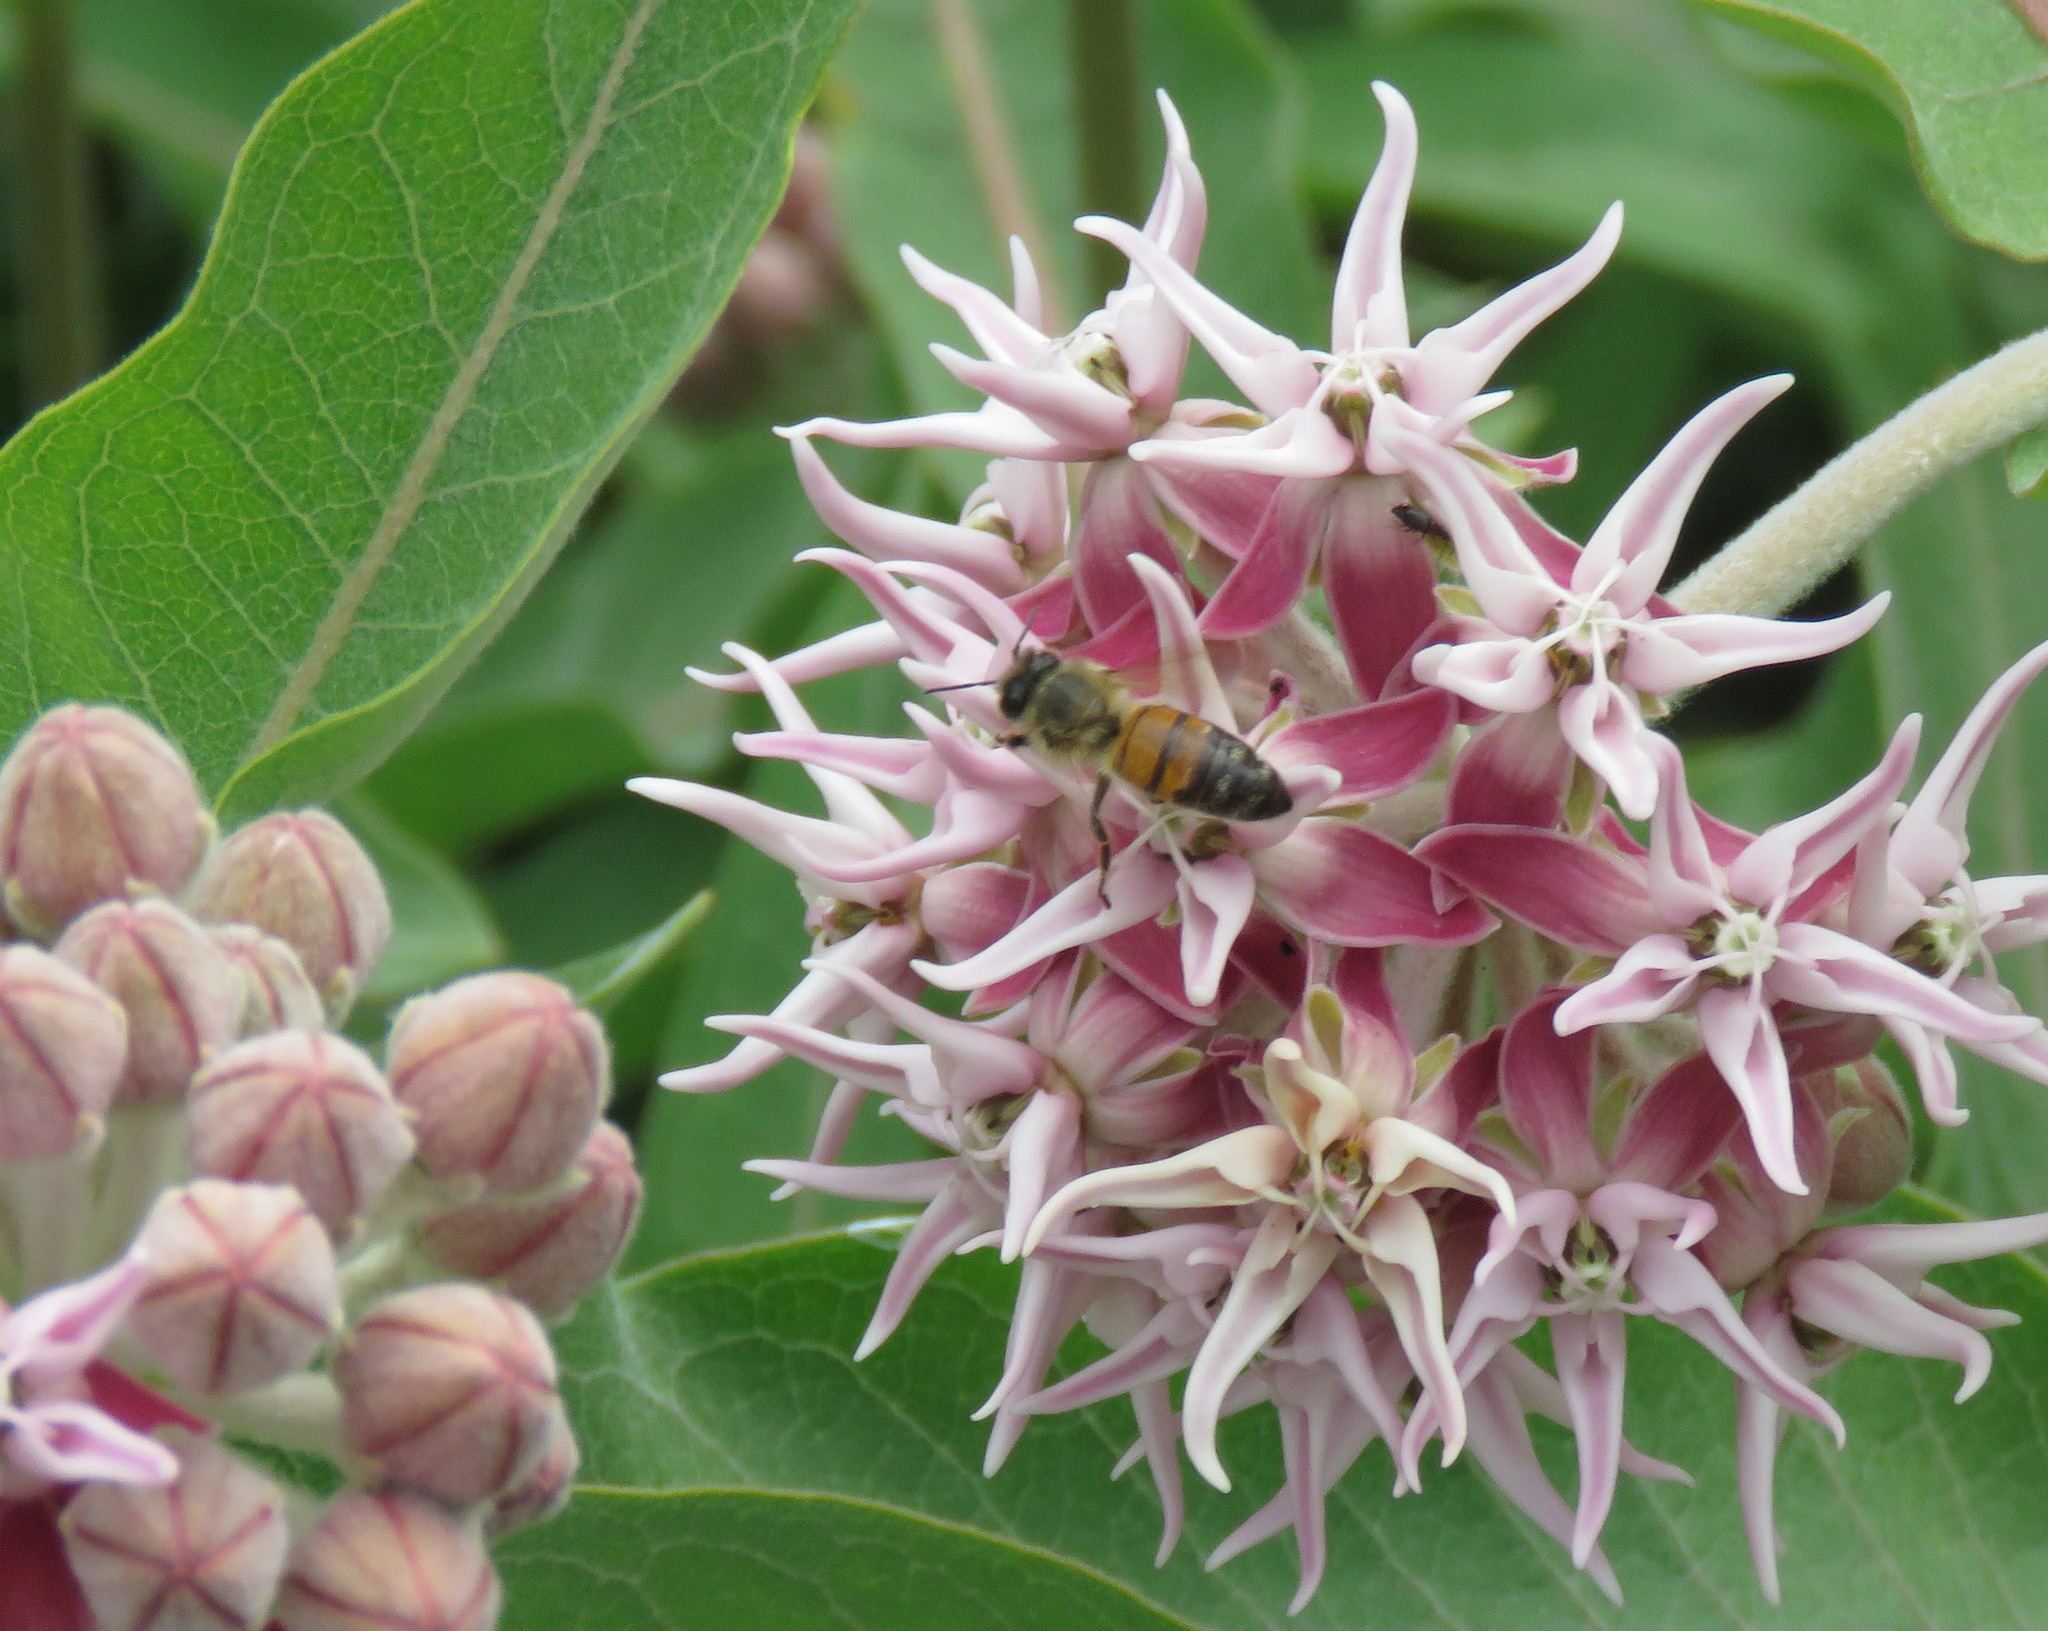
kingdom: Animalia
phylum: Arthropoda
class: Insecta
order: Hymenoptera
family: Apidae
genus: Apis
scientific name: Apis mellifera
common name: Honey bee
